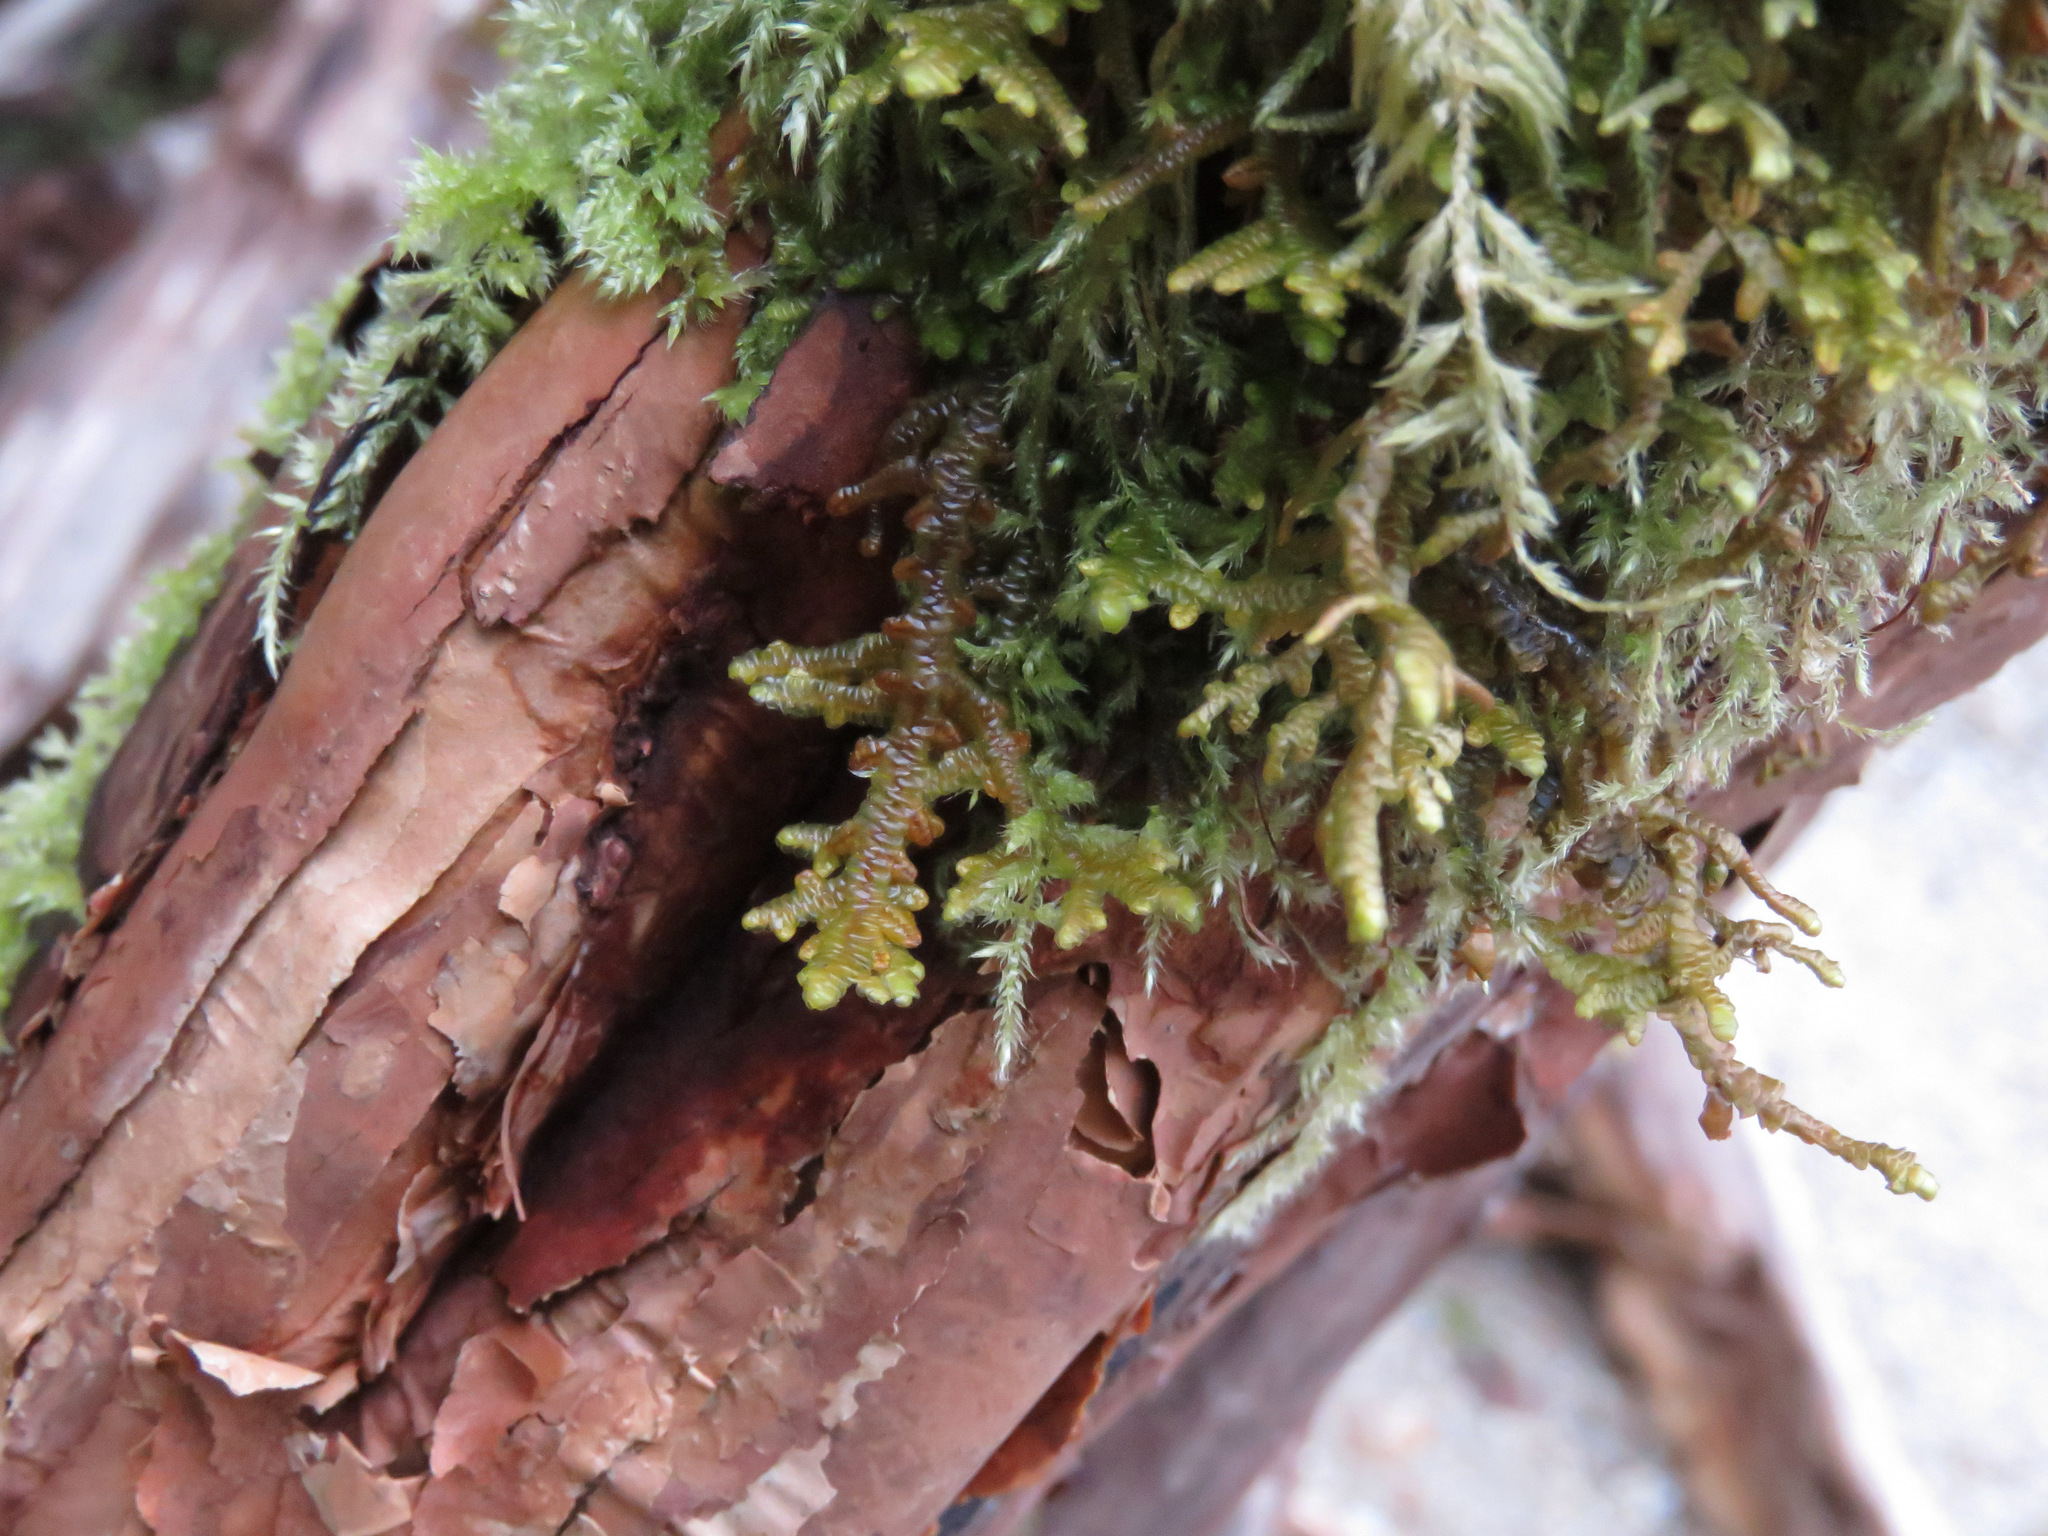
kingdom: Plantae
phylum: Marchantiophyta
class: Jungermanniopsida
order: Porellales
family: Porellaceae
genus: Porella
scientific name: Porella navicularis
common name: Tree ruffle liverwort
